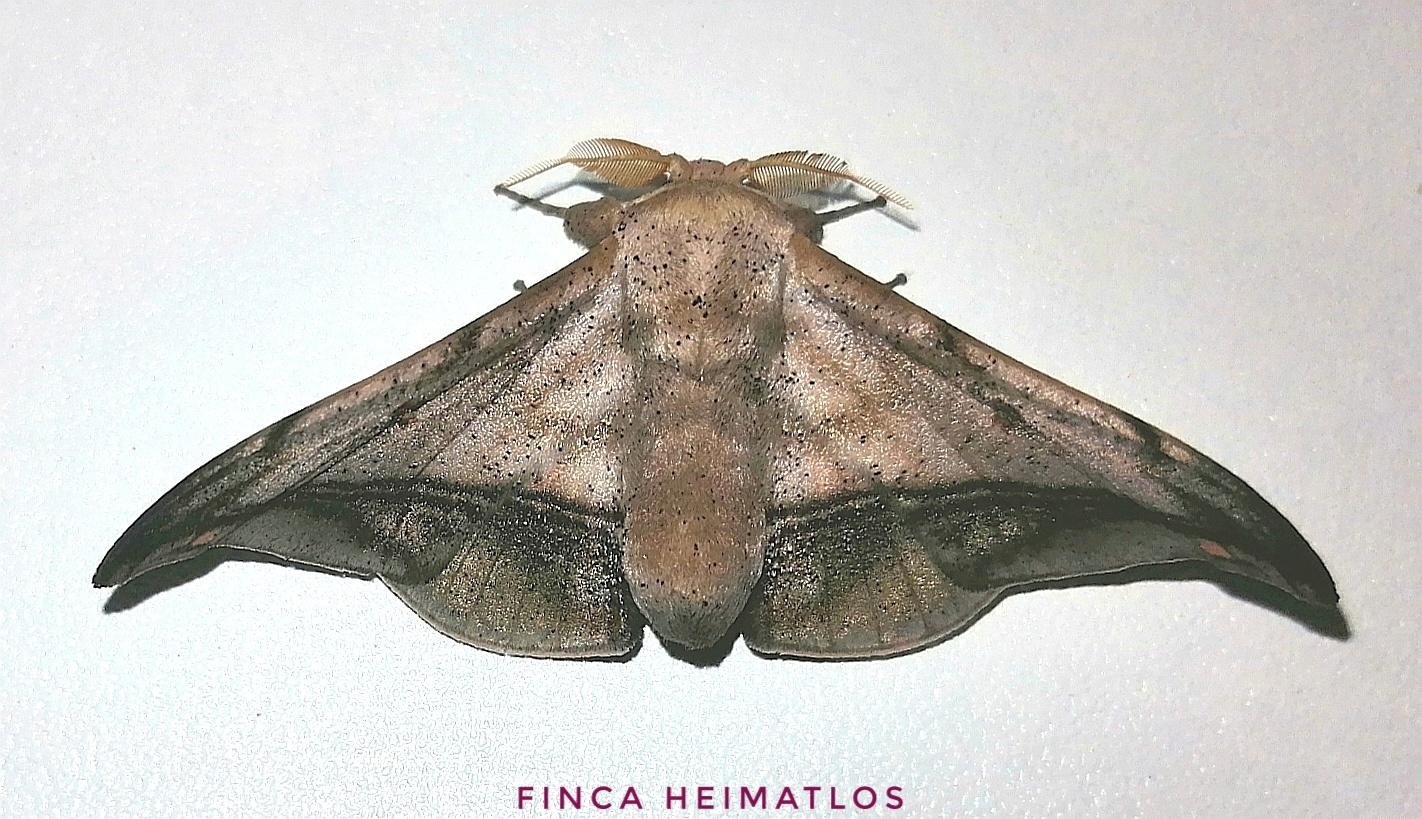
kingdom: Animalia
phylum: Arthropoda
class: Insecta
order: Lepidoptera
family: Mimallonidae
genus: Cicinnus
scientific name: Cicinnus fogia
